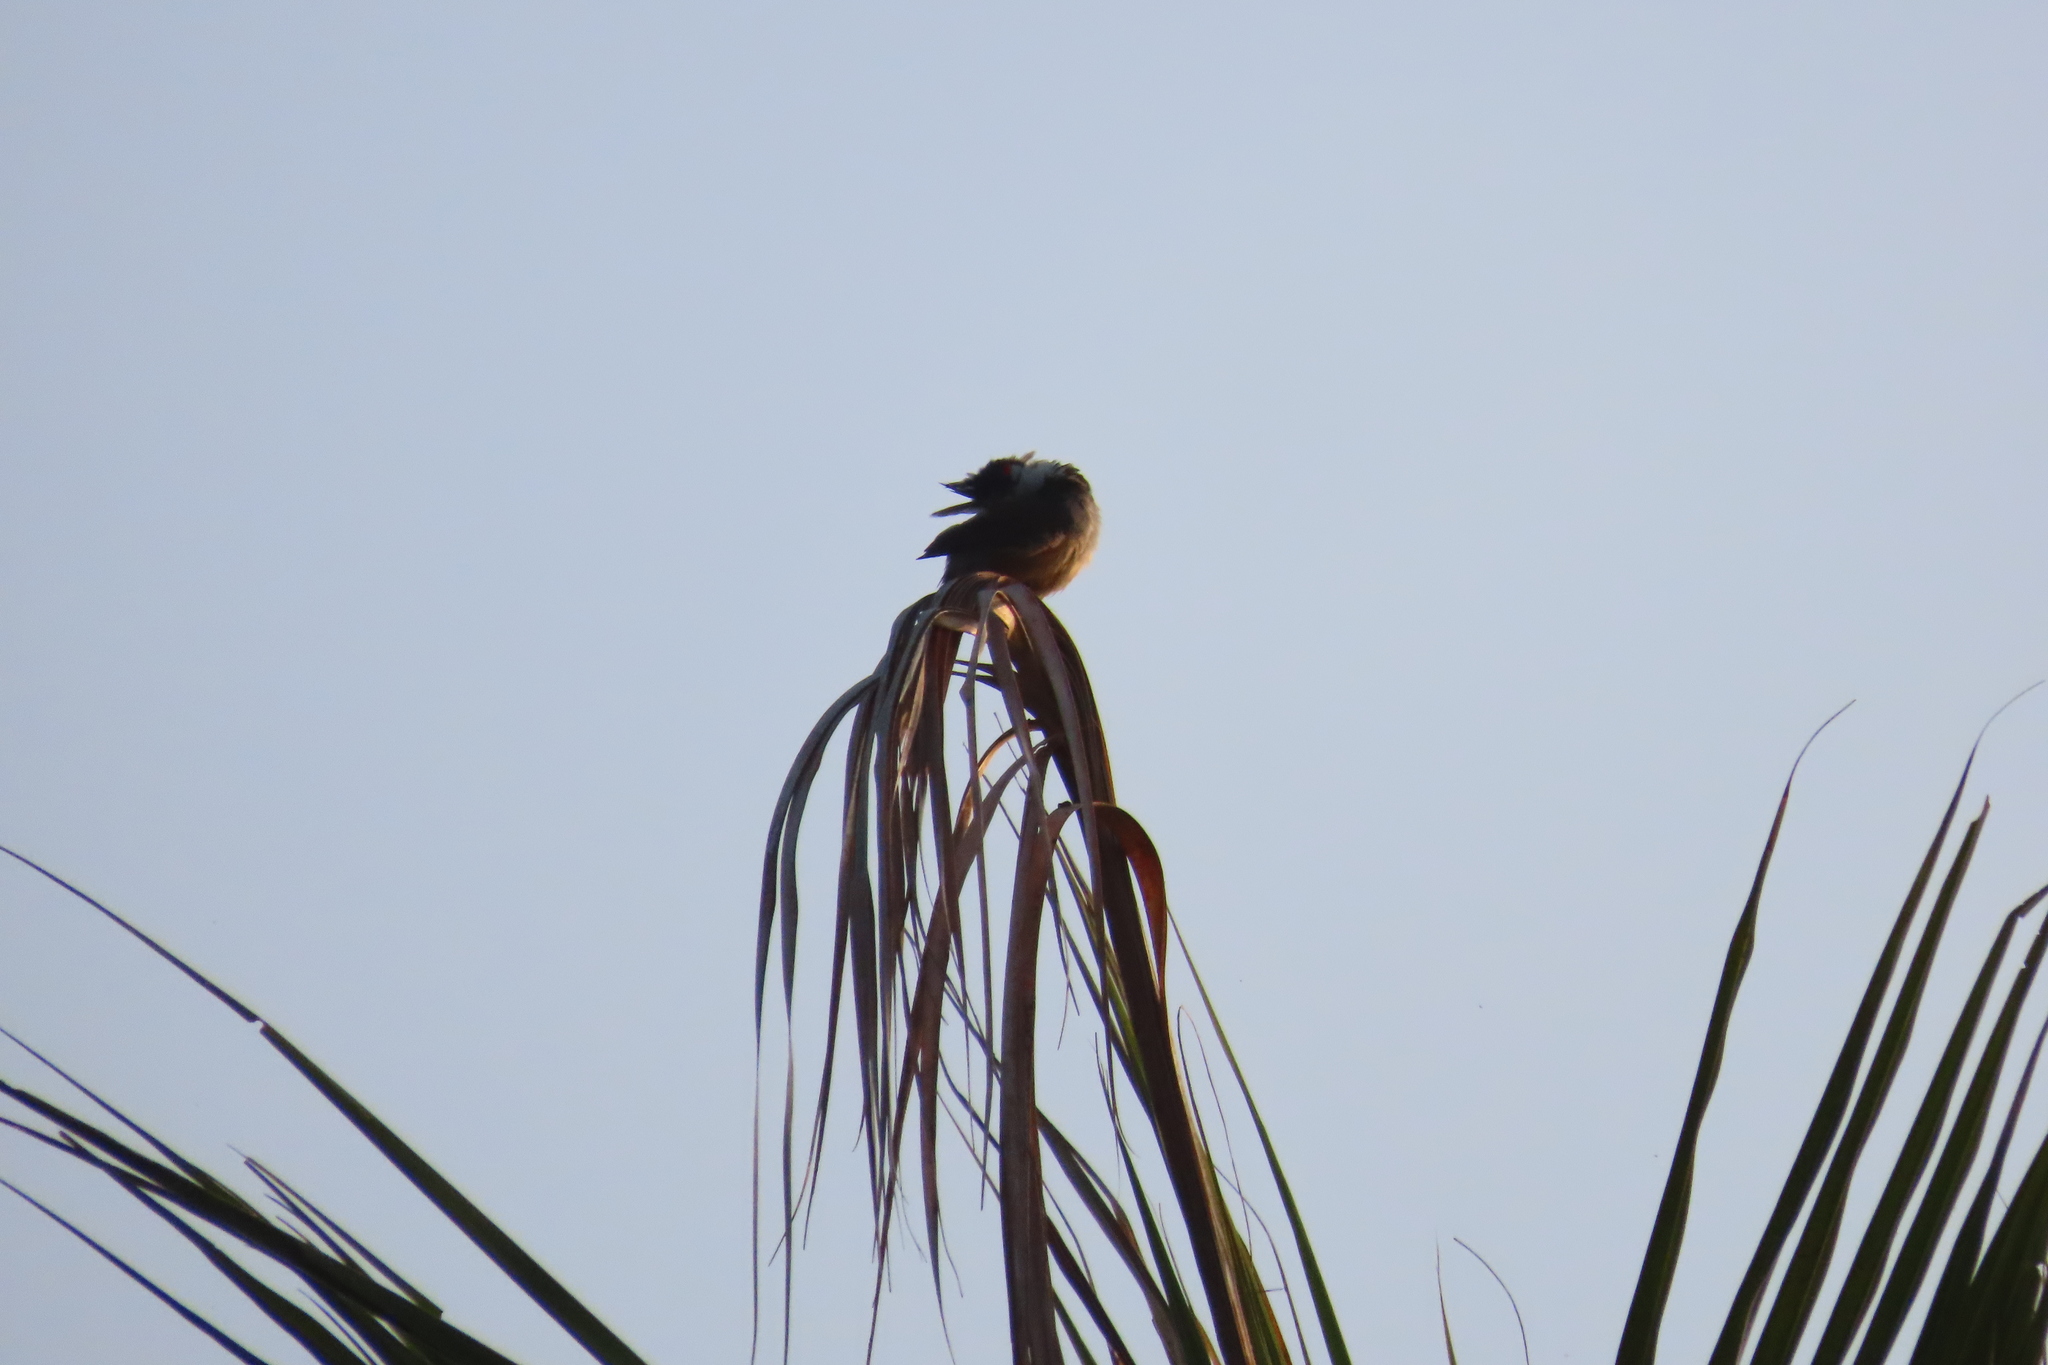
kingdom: Animalia
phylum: Chordata
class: Aves
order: Passeriformes
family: Pycnonotidae
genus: Pycnonotus
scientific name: Pycnonotus jocosus
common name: Red-whiskered bulbul
